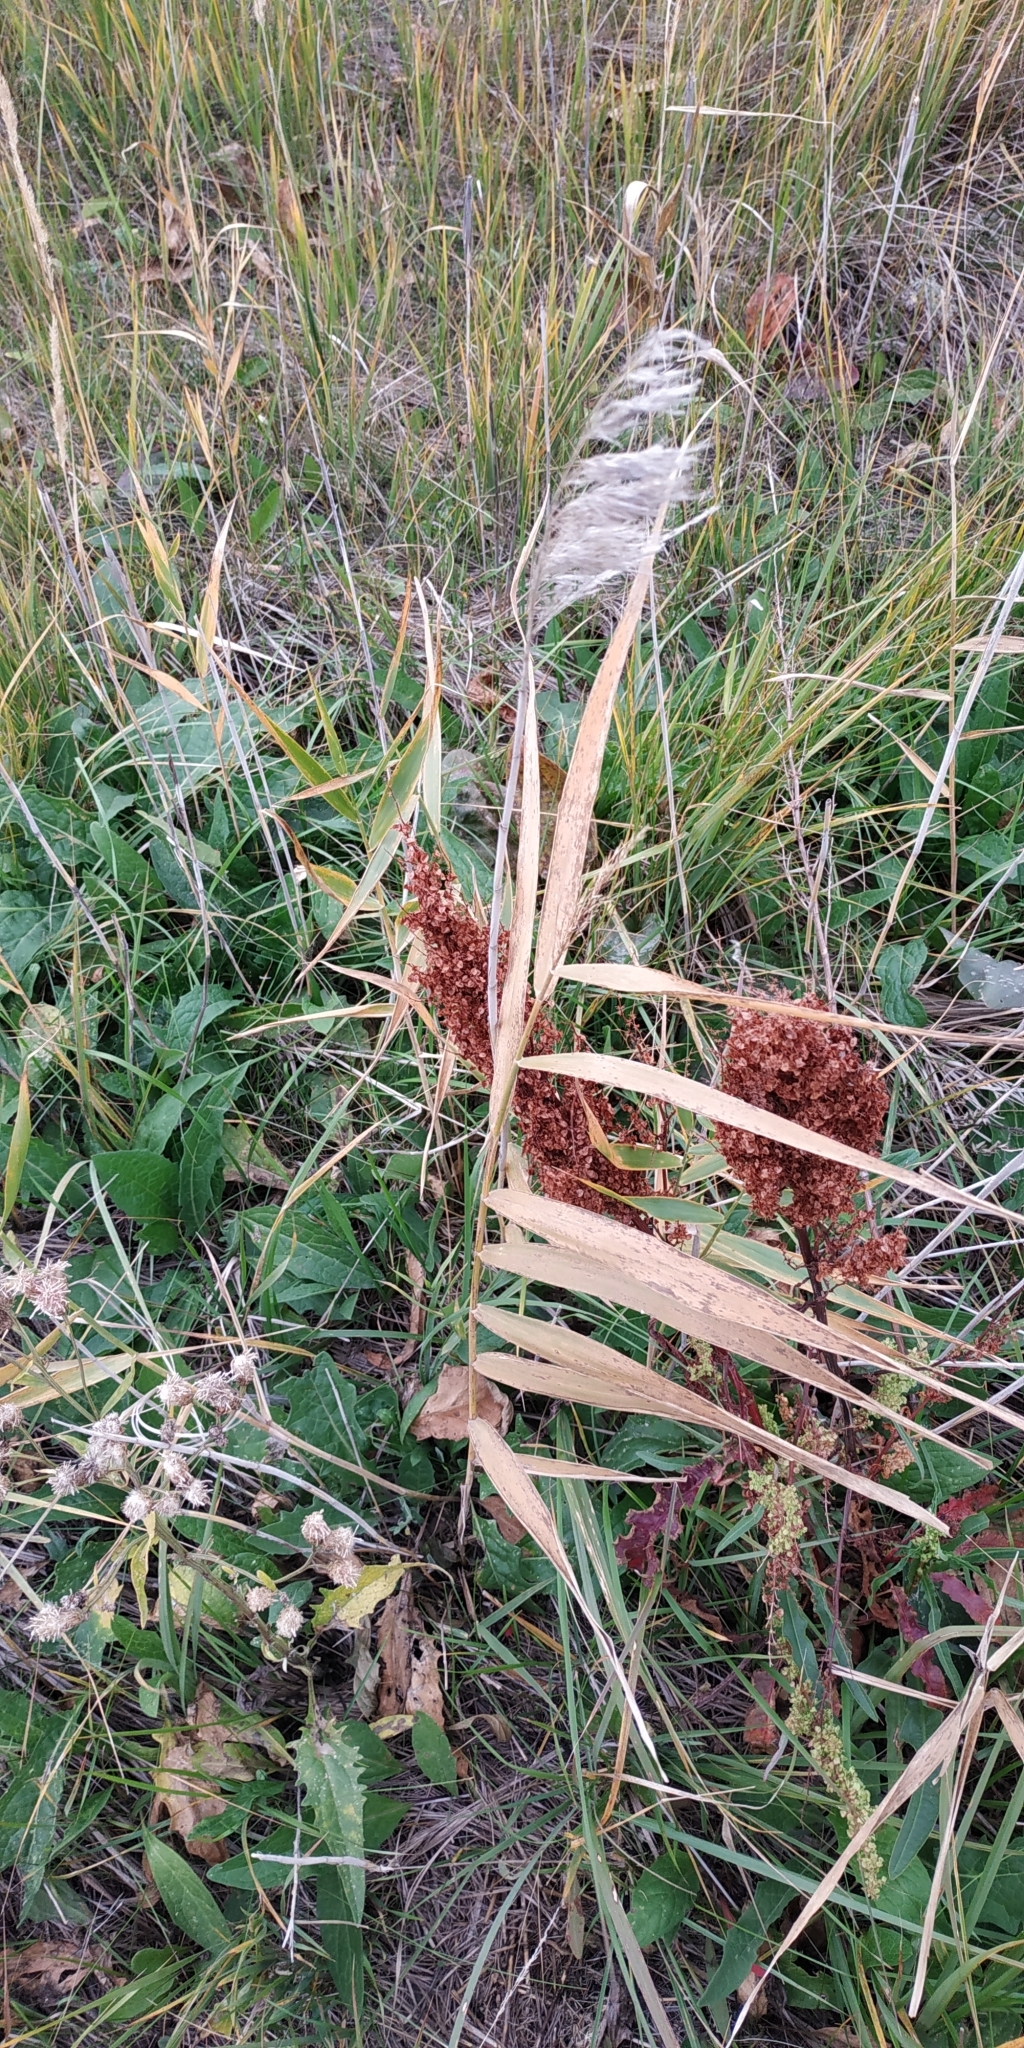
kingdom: Plantae
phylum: Tracheophyta
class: Liliopsida
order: Poales
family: Poaceae
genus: Phragmites
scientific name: Phragmites australis
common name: Common reed
